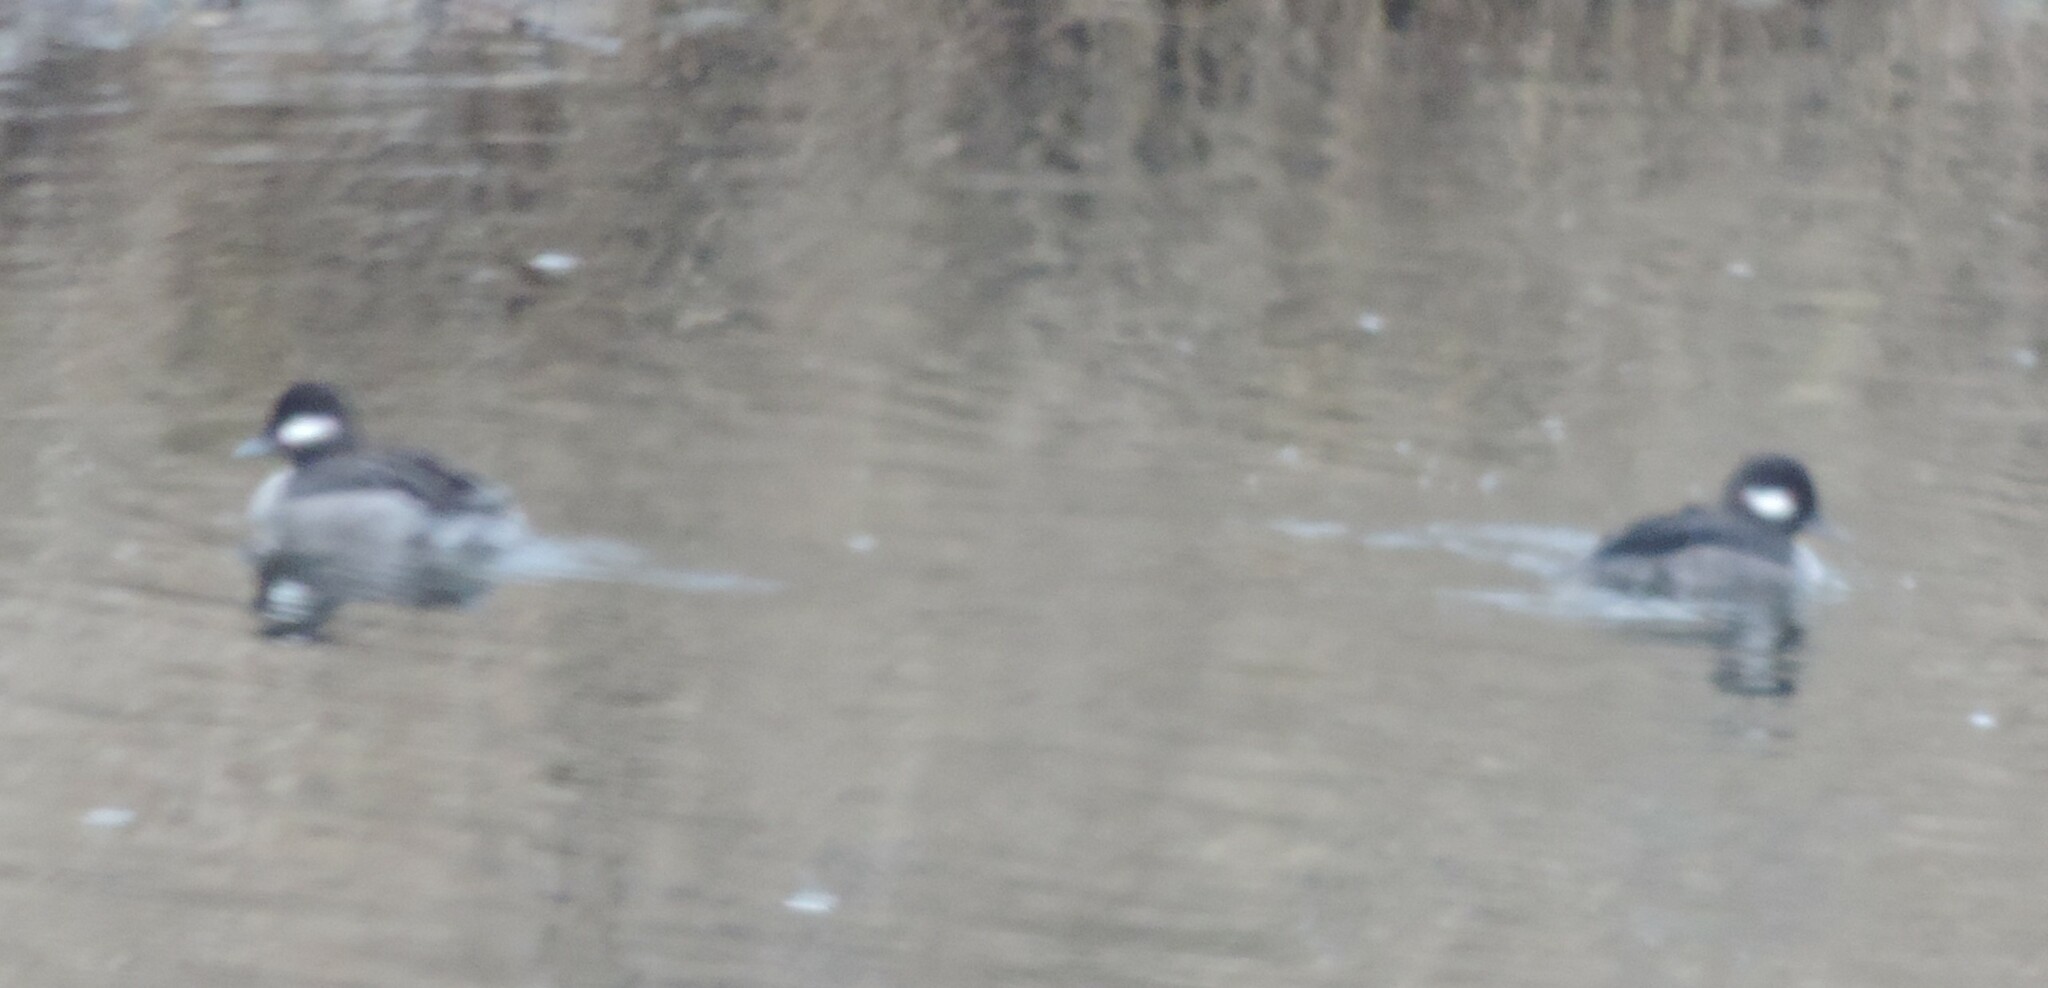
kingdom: Animalia
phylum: Chordata
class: Aves
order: Anseriformes
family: Anatidae
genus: Bucephala
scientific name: Bucephala albeola
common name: Bufflehead
